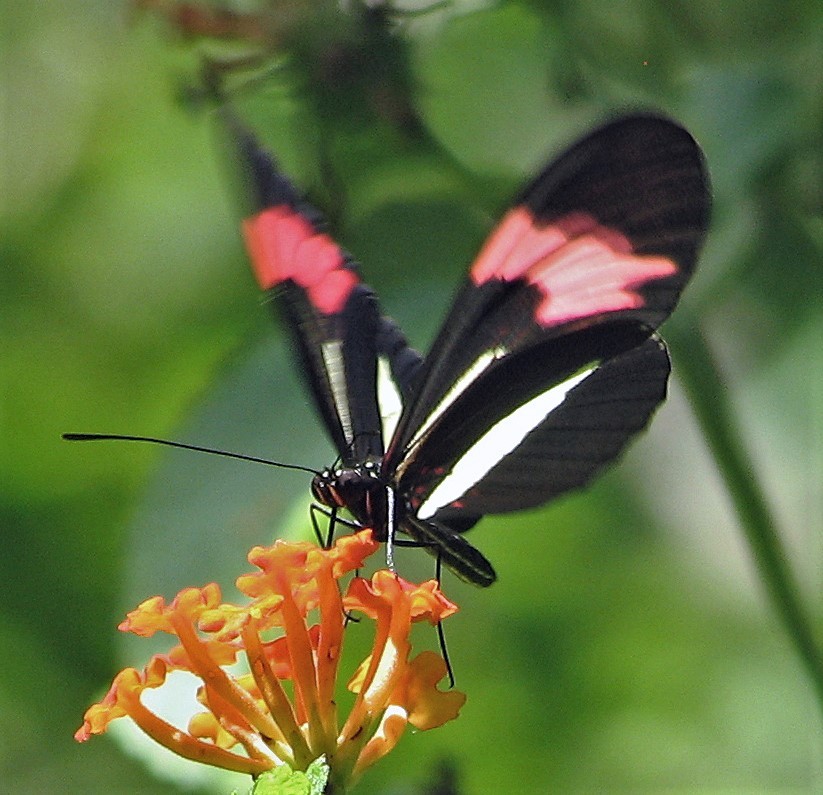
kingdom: Animalia
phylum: Arthropoda
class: Insecta
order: Lepidoptera
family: Nymphalidae
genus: Heliconius
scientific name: Heliconius erato
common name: Common patch longwing
